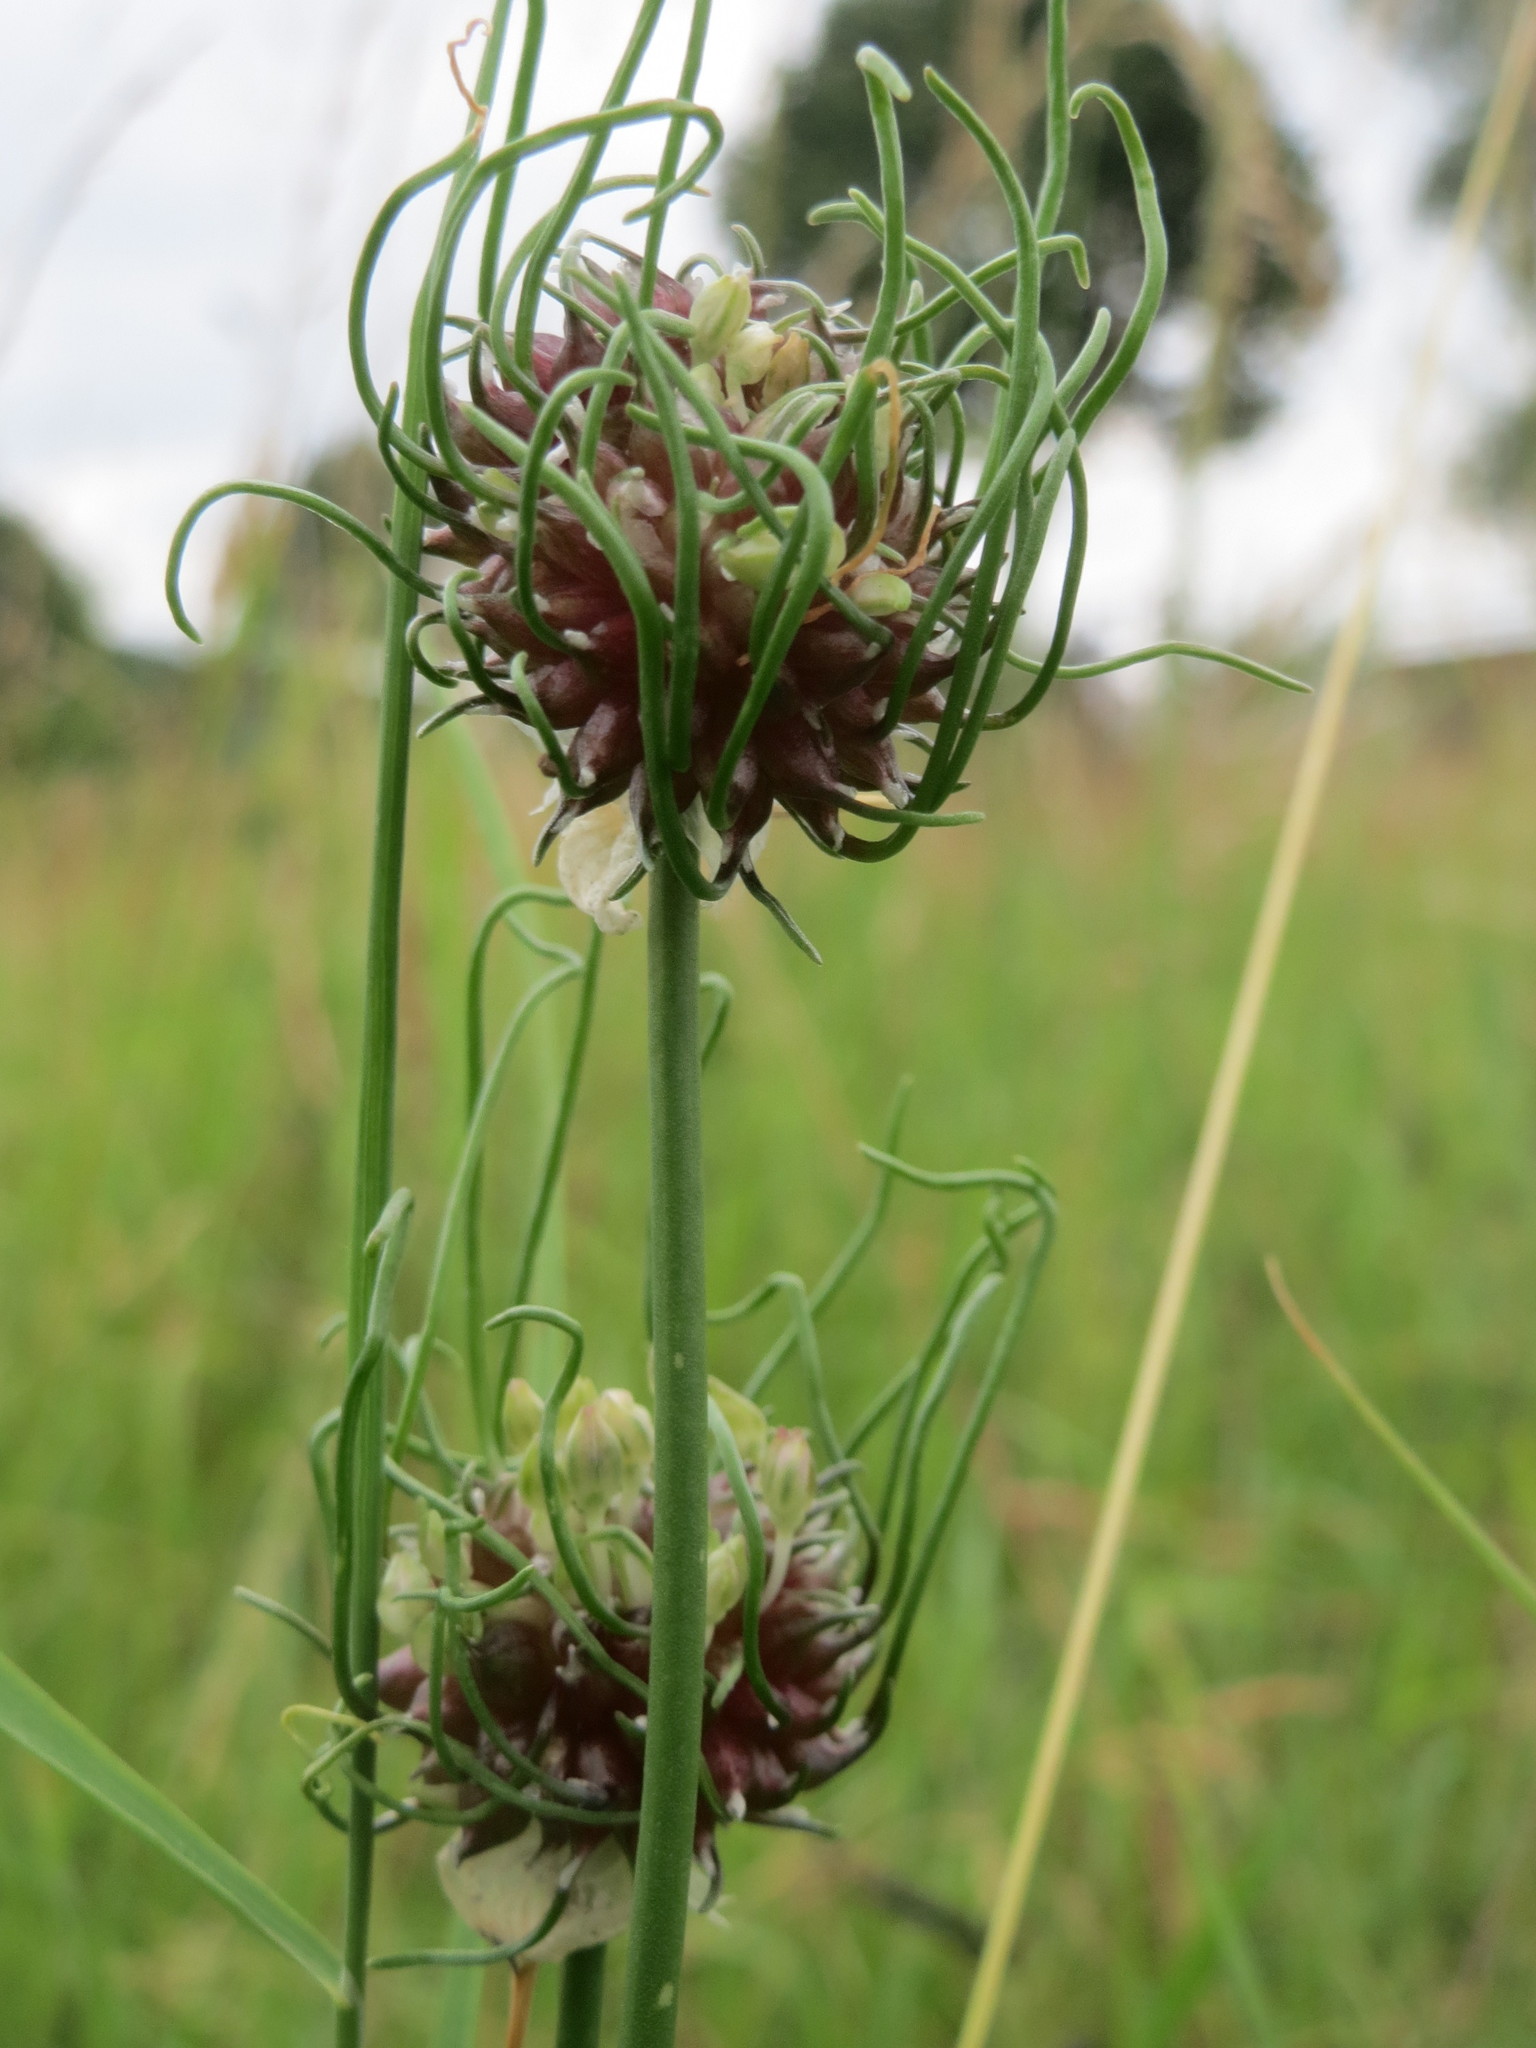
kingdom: Plantae
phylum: Tracheophyta
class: Liliopsida
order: Asparagales
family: Amaryllidaceae
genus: Allium
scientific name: Allium vineale
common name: Crow garlic
